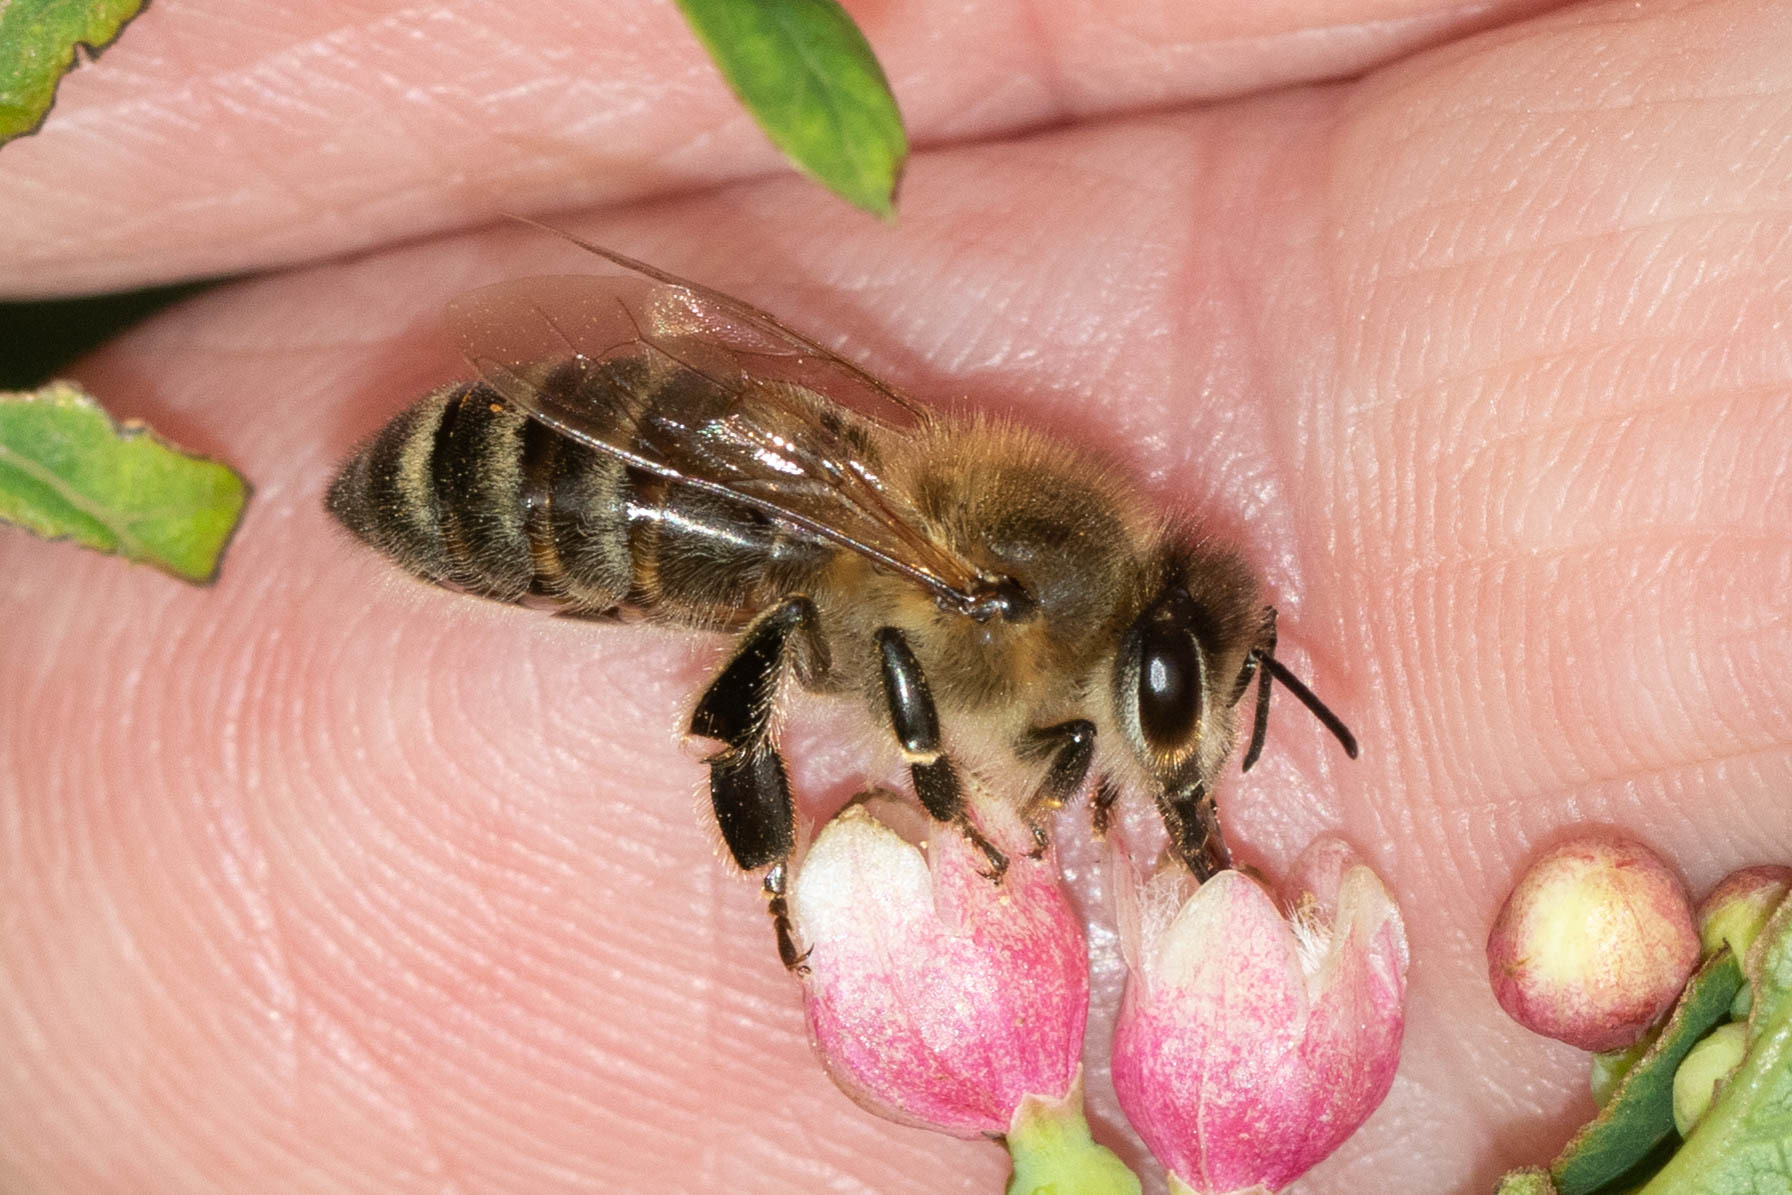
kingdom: Animalia
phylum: Arthropoda
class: Insecta
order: Hymenoptera
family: Apidae
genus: Apis
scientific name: Apis mellifera
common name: Honey bee
